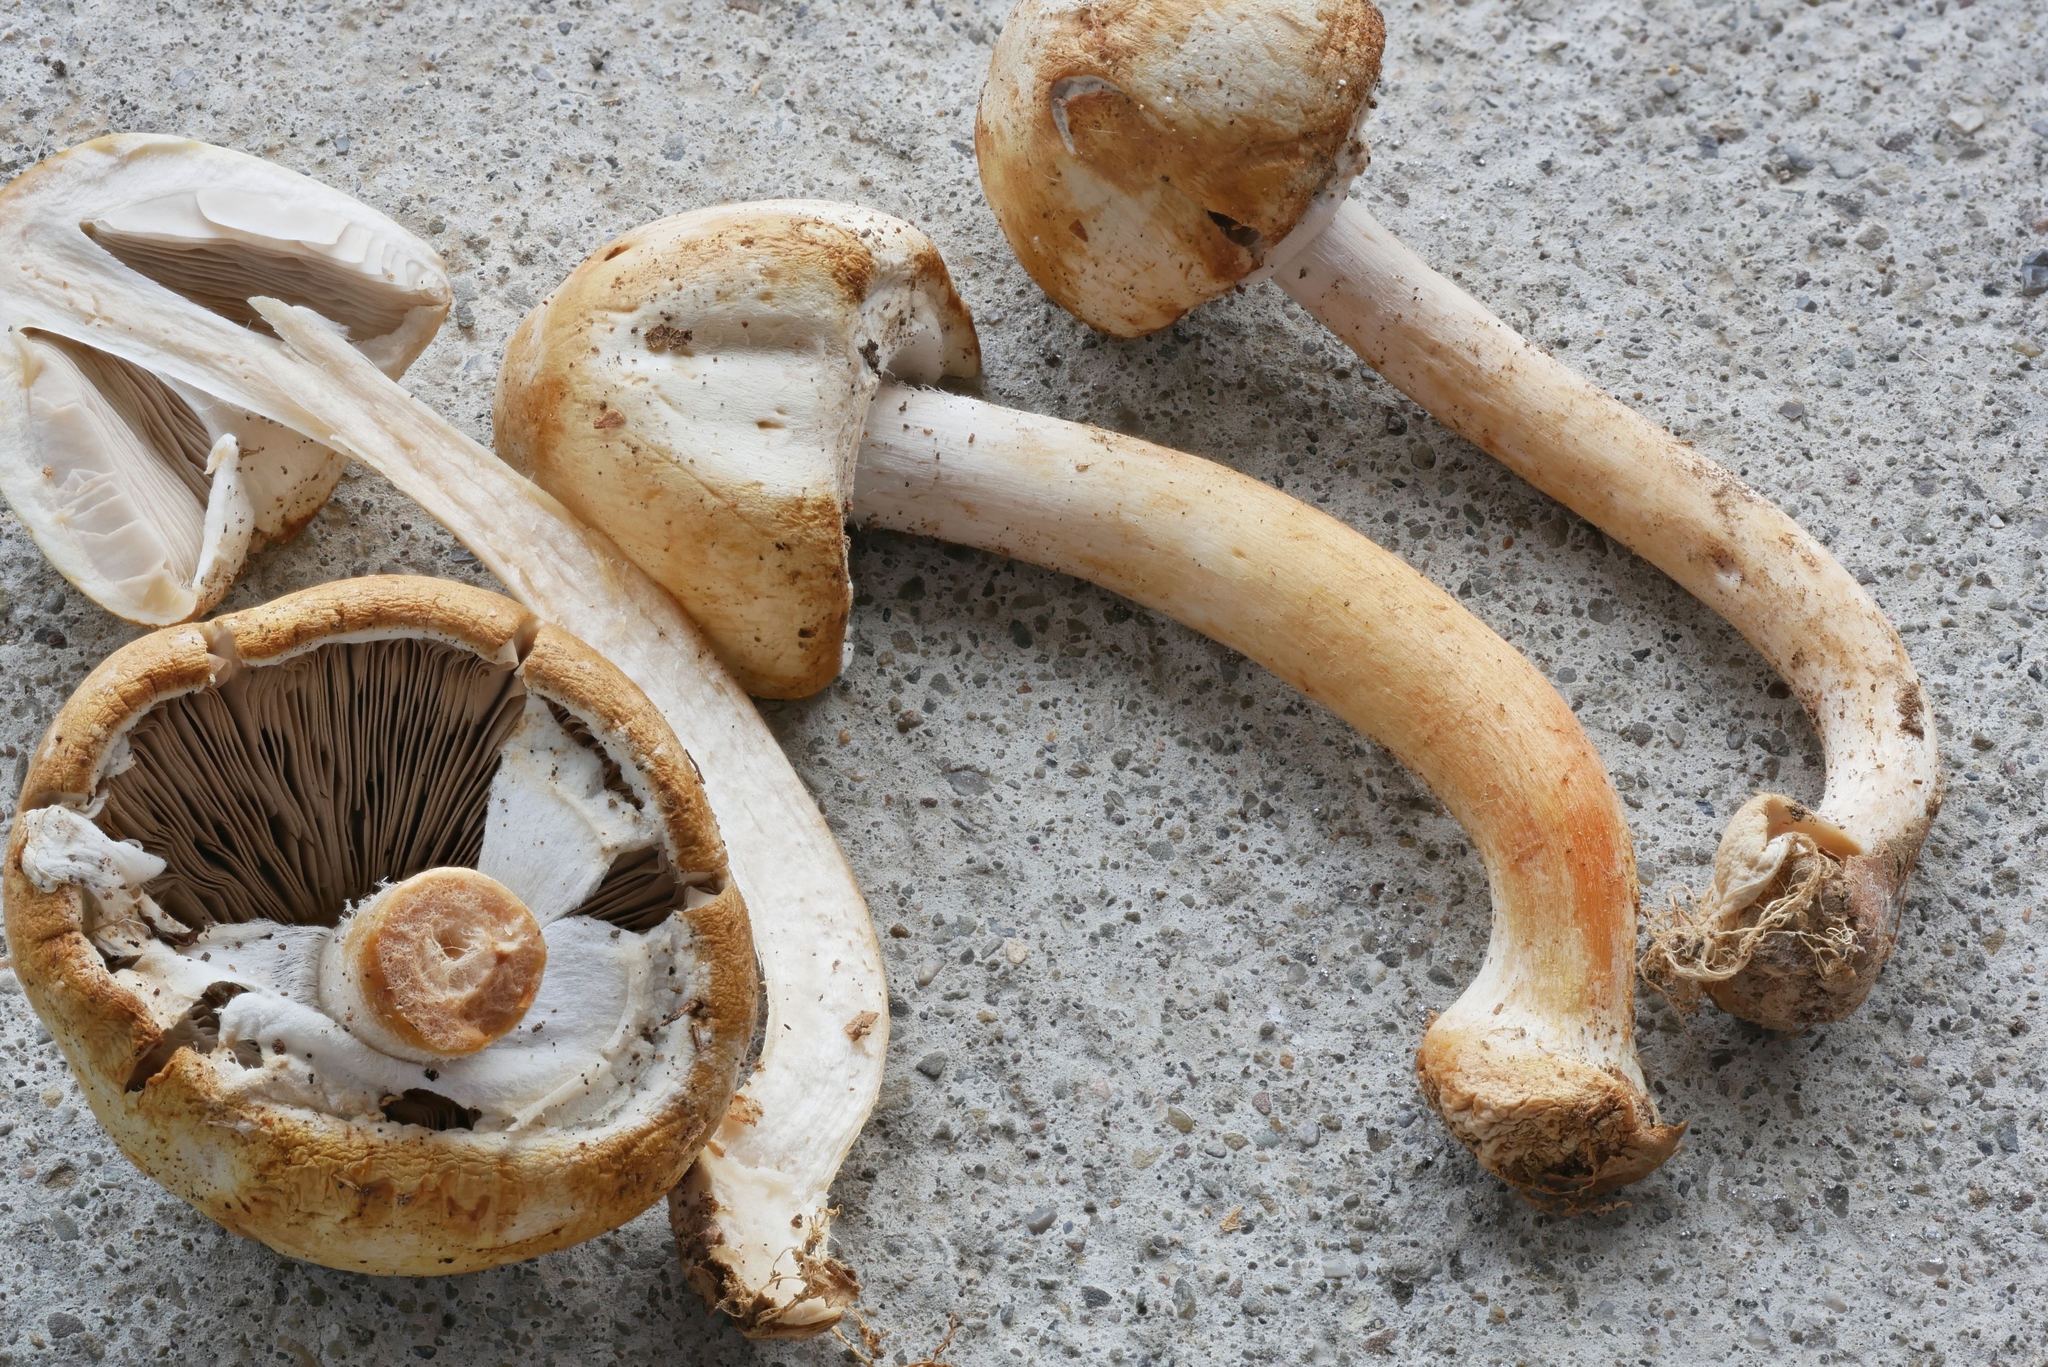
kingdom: Fungi
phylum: Basidiomycota
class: Agaricomycetes
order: Agaricales
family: Agaricaceae
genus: Agaricus
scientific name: Agaricus reducibulbus
